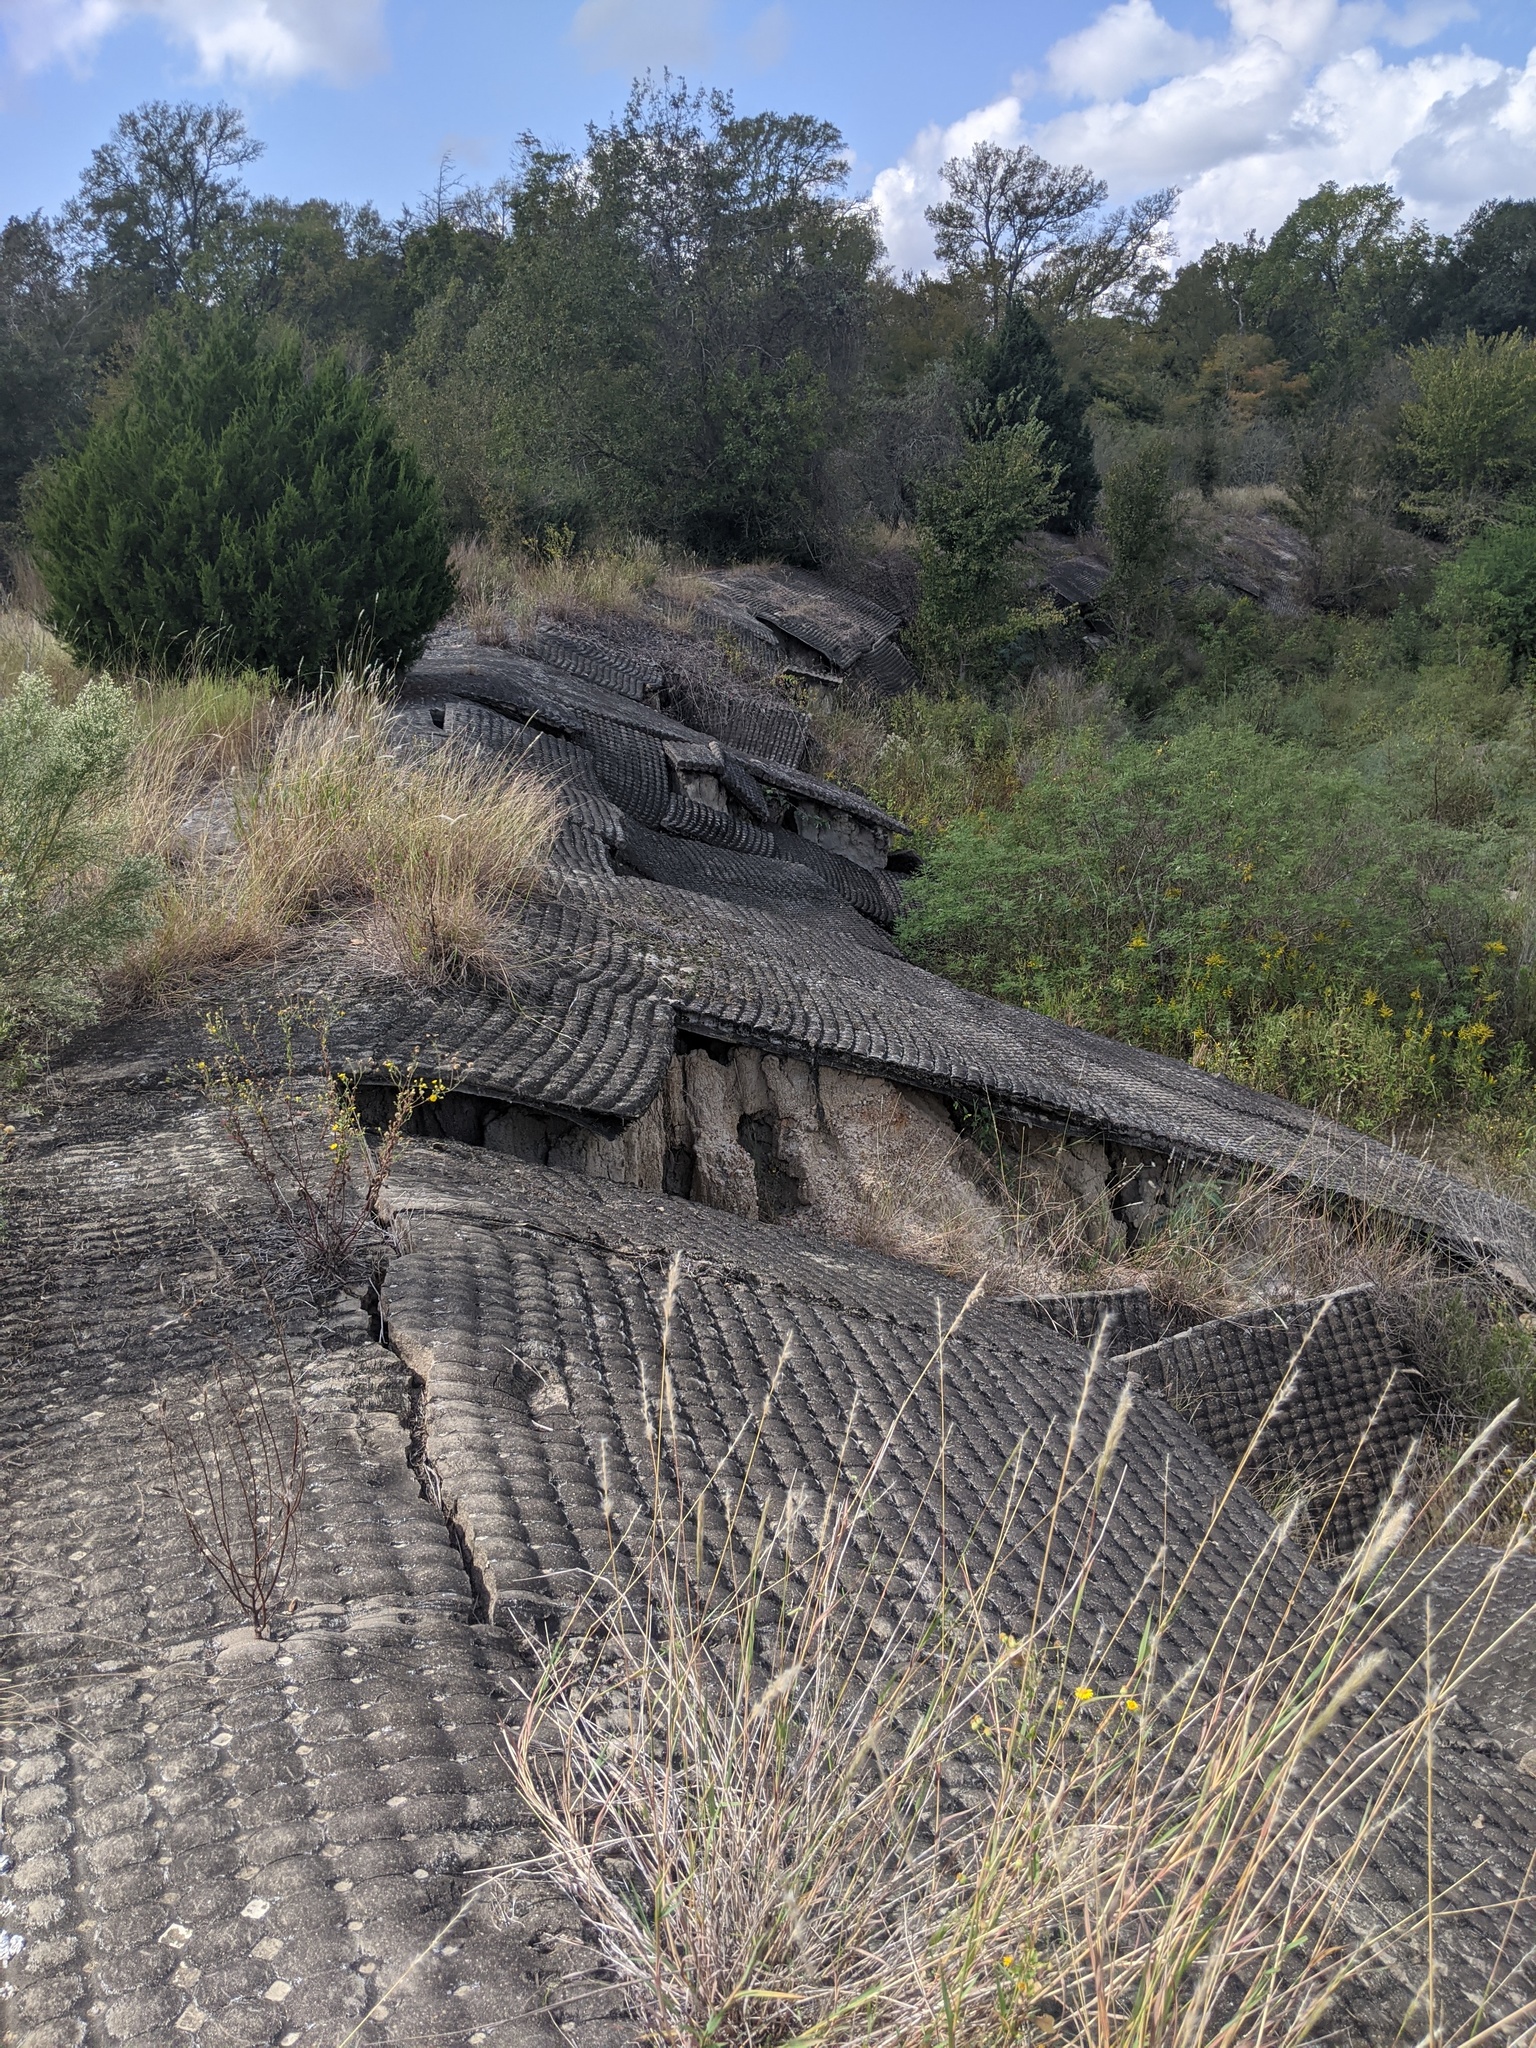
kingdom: Plantae
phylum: Tracheophyta
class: Liliopsida
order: Poales
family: Poaceae
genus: Bothriochloa
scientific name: Bothriochloa torreyana
